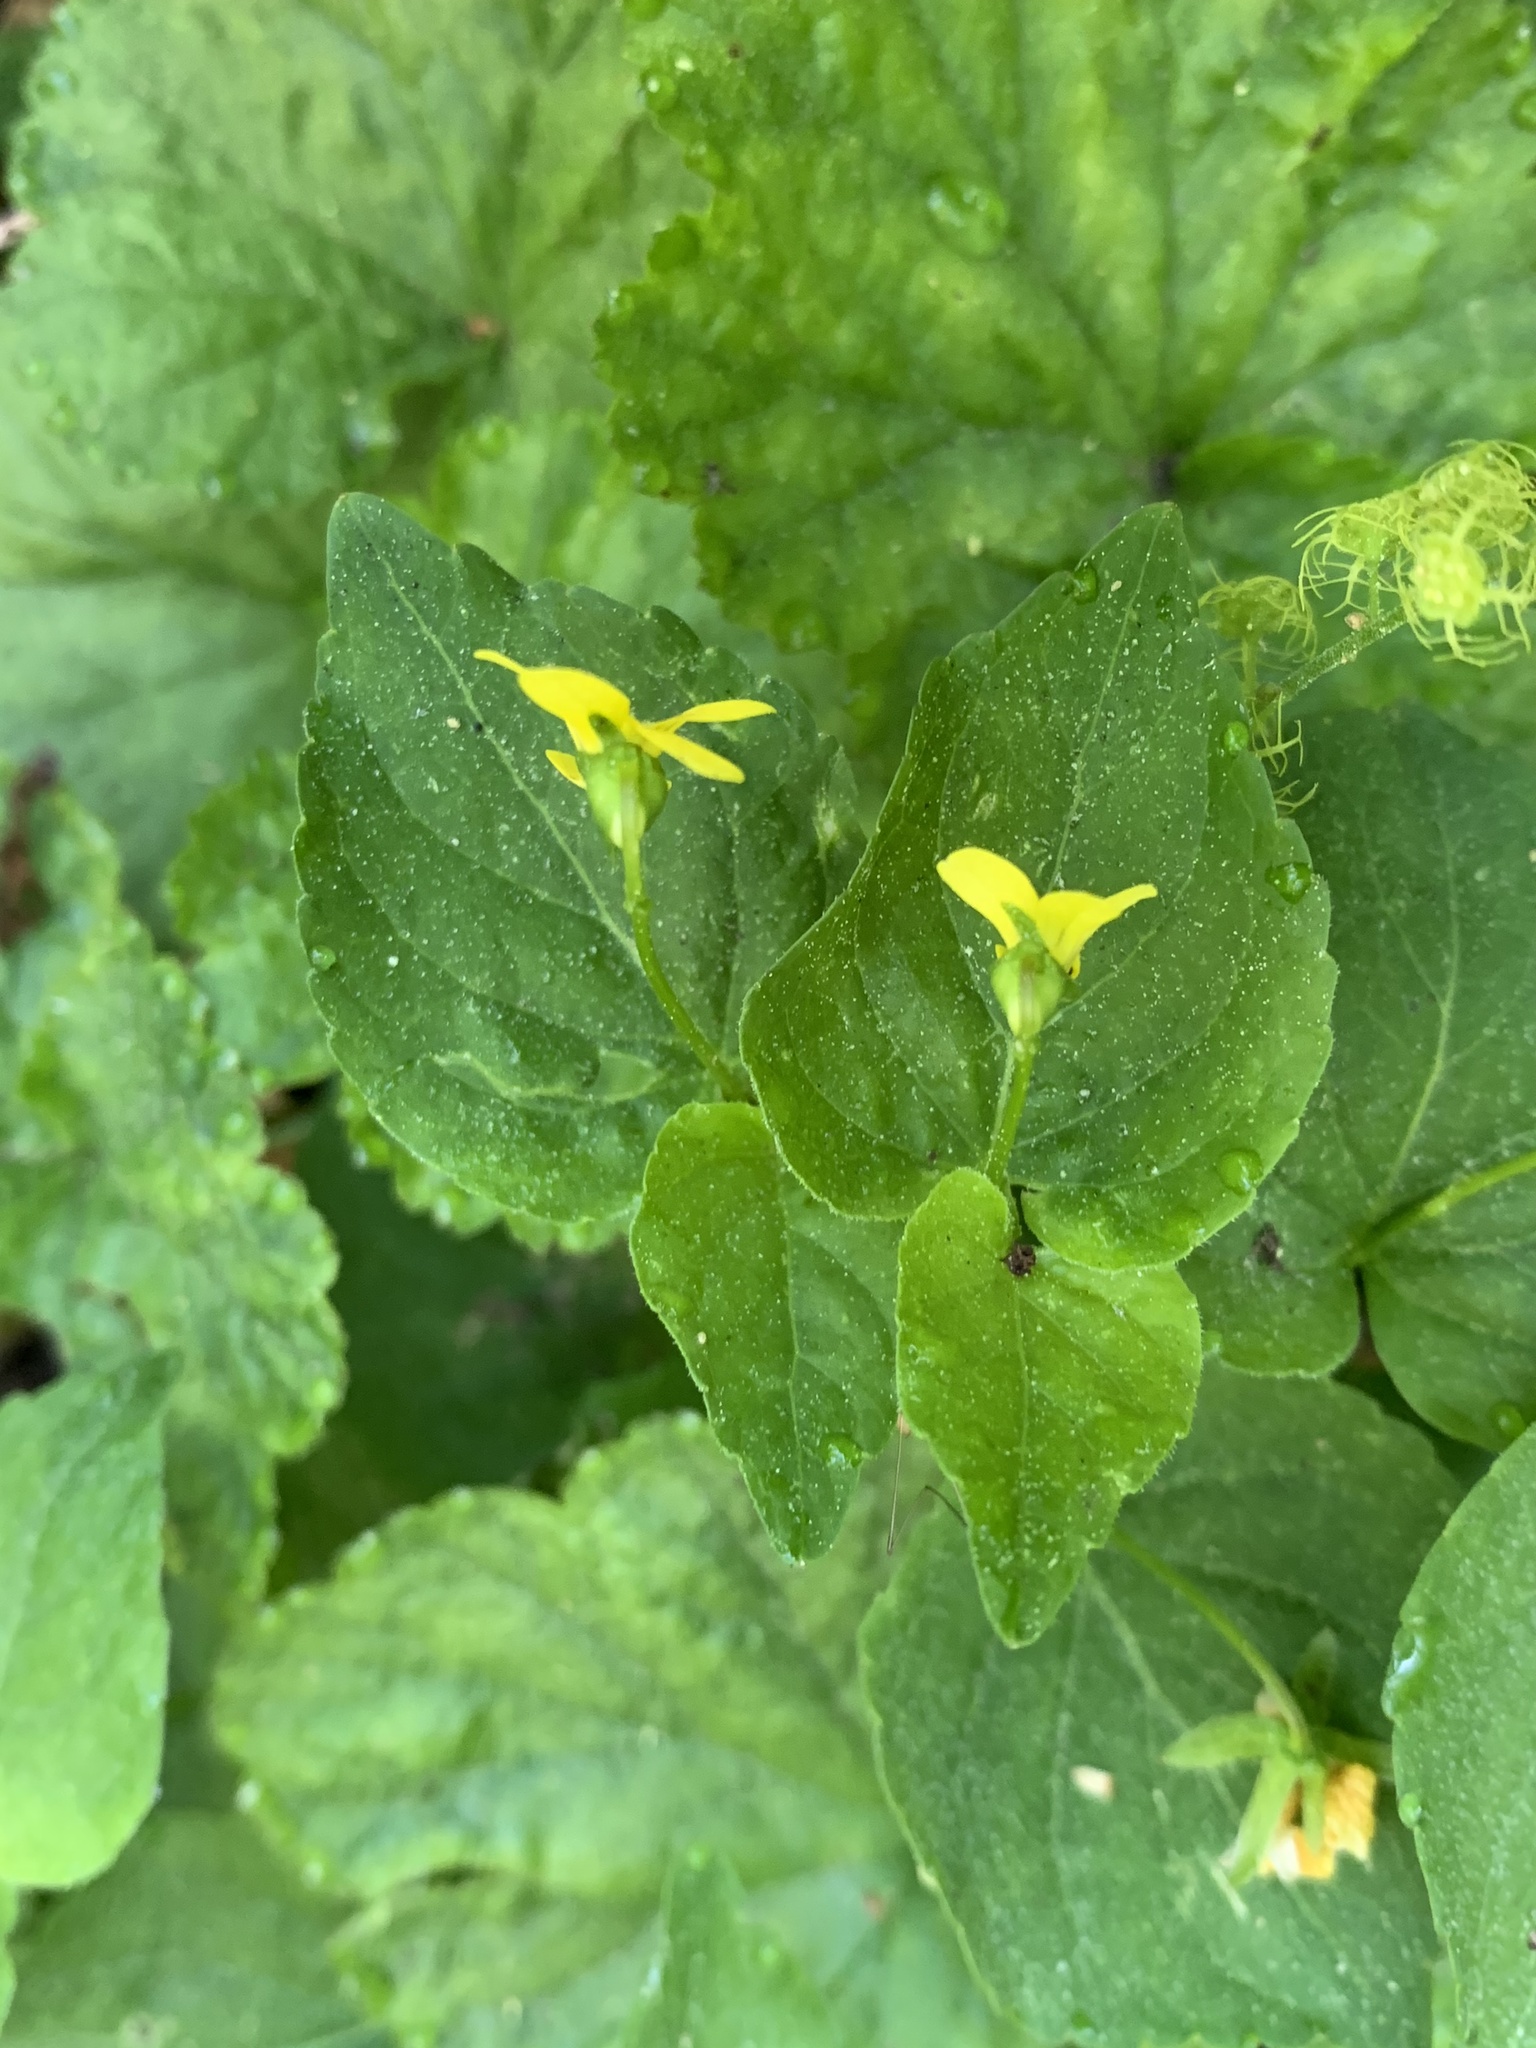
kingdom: Plantae
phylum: Tracheophyta
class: Magnoliopsida
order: Malpighiales
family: Violaceae
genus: Viola
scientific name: Viola glabella
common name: Stream violet
